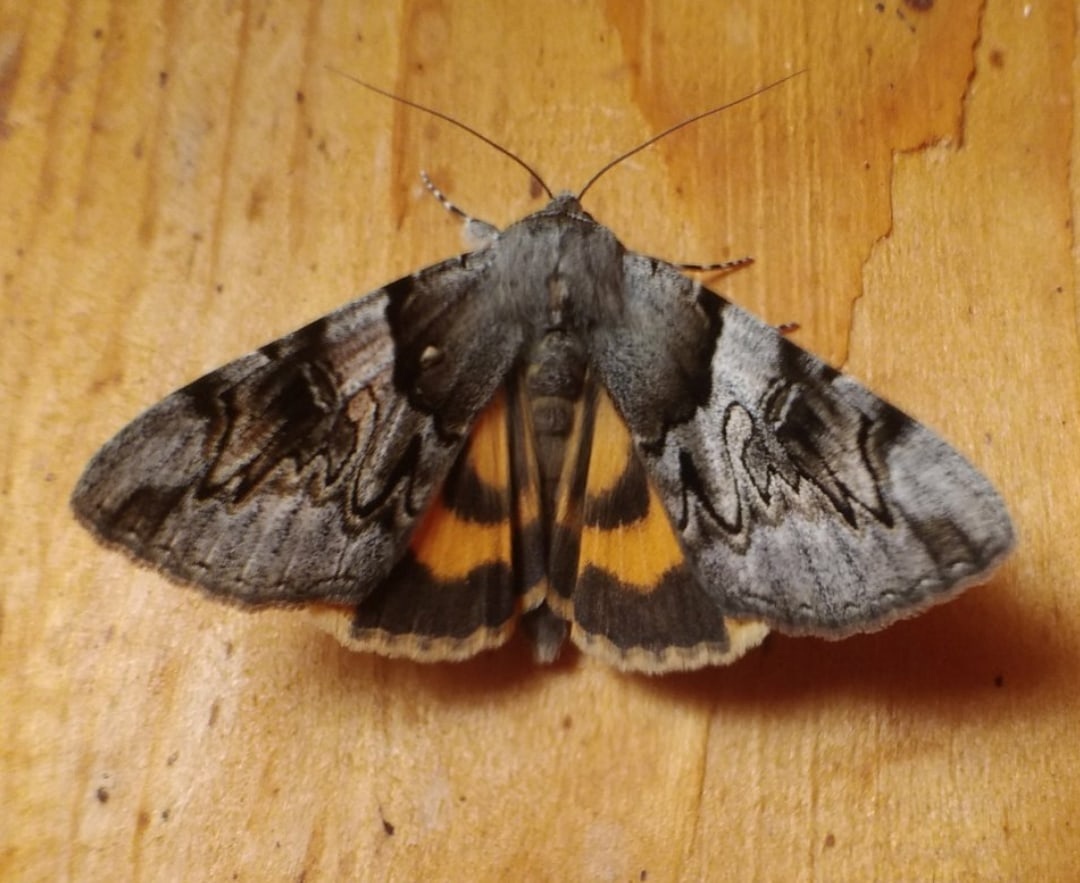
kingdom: Animalia
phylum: Arthropoda
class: Insecta
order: Lepidoptera
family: Erebidae
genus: Catocala
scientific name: Catocala fulminea
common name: Yellow bands underwing
